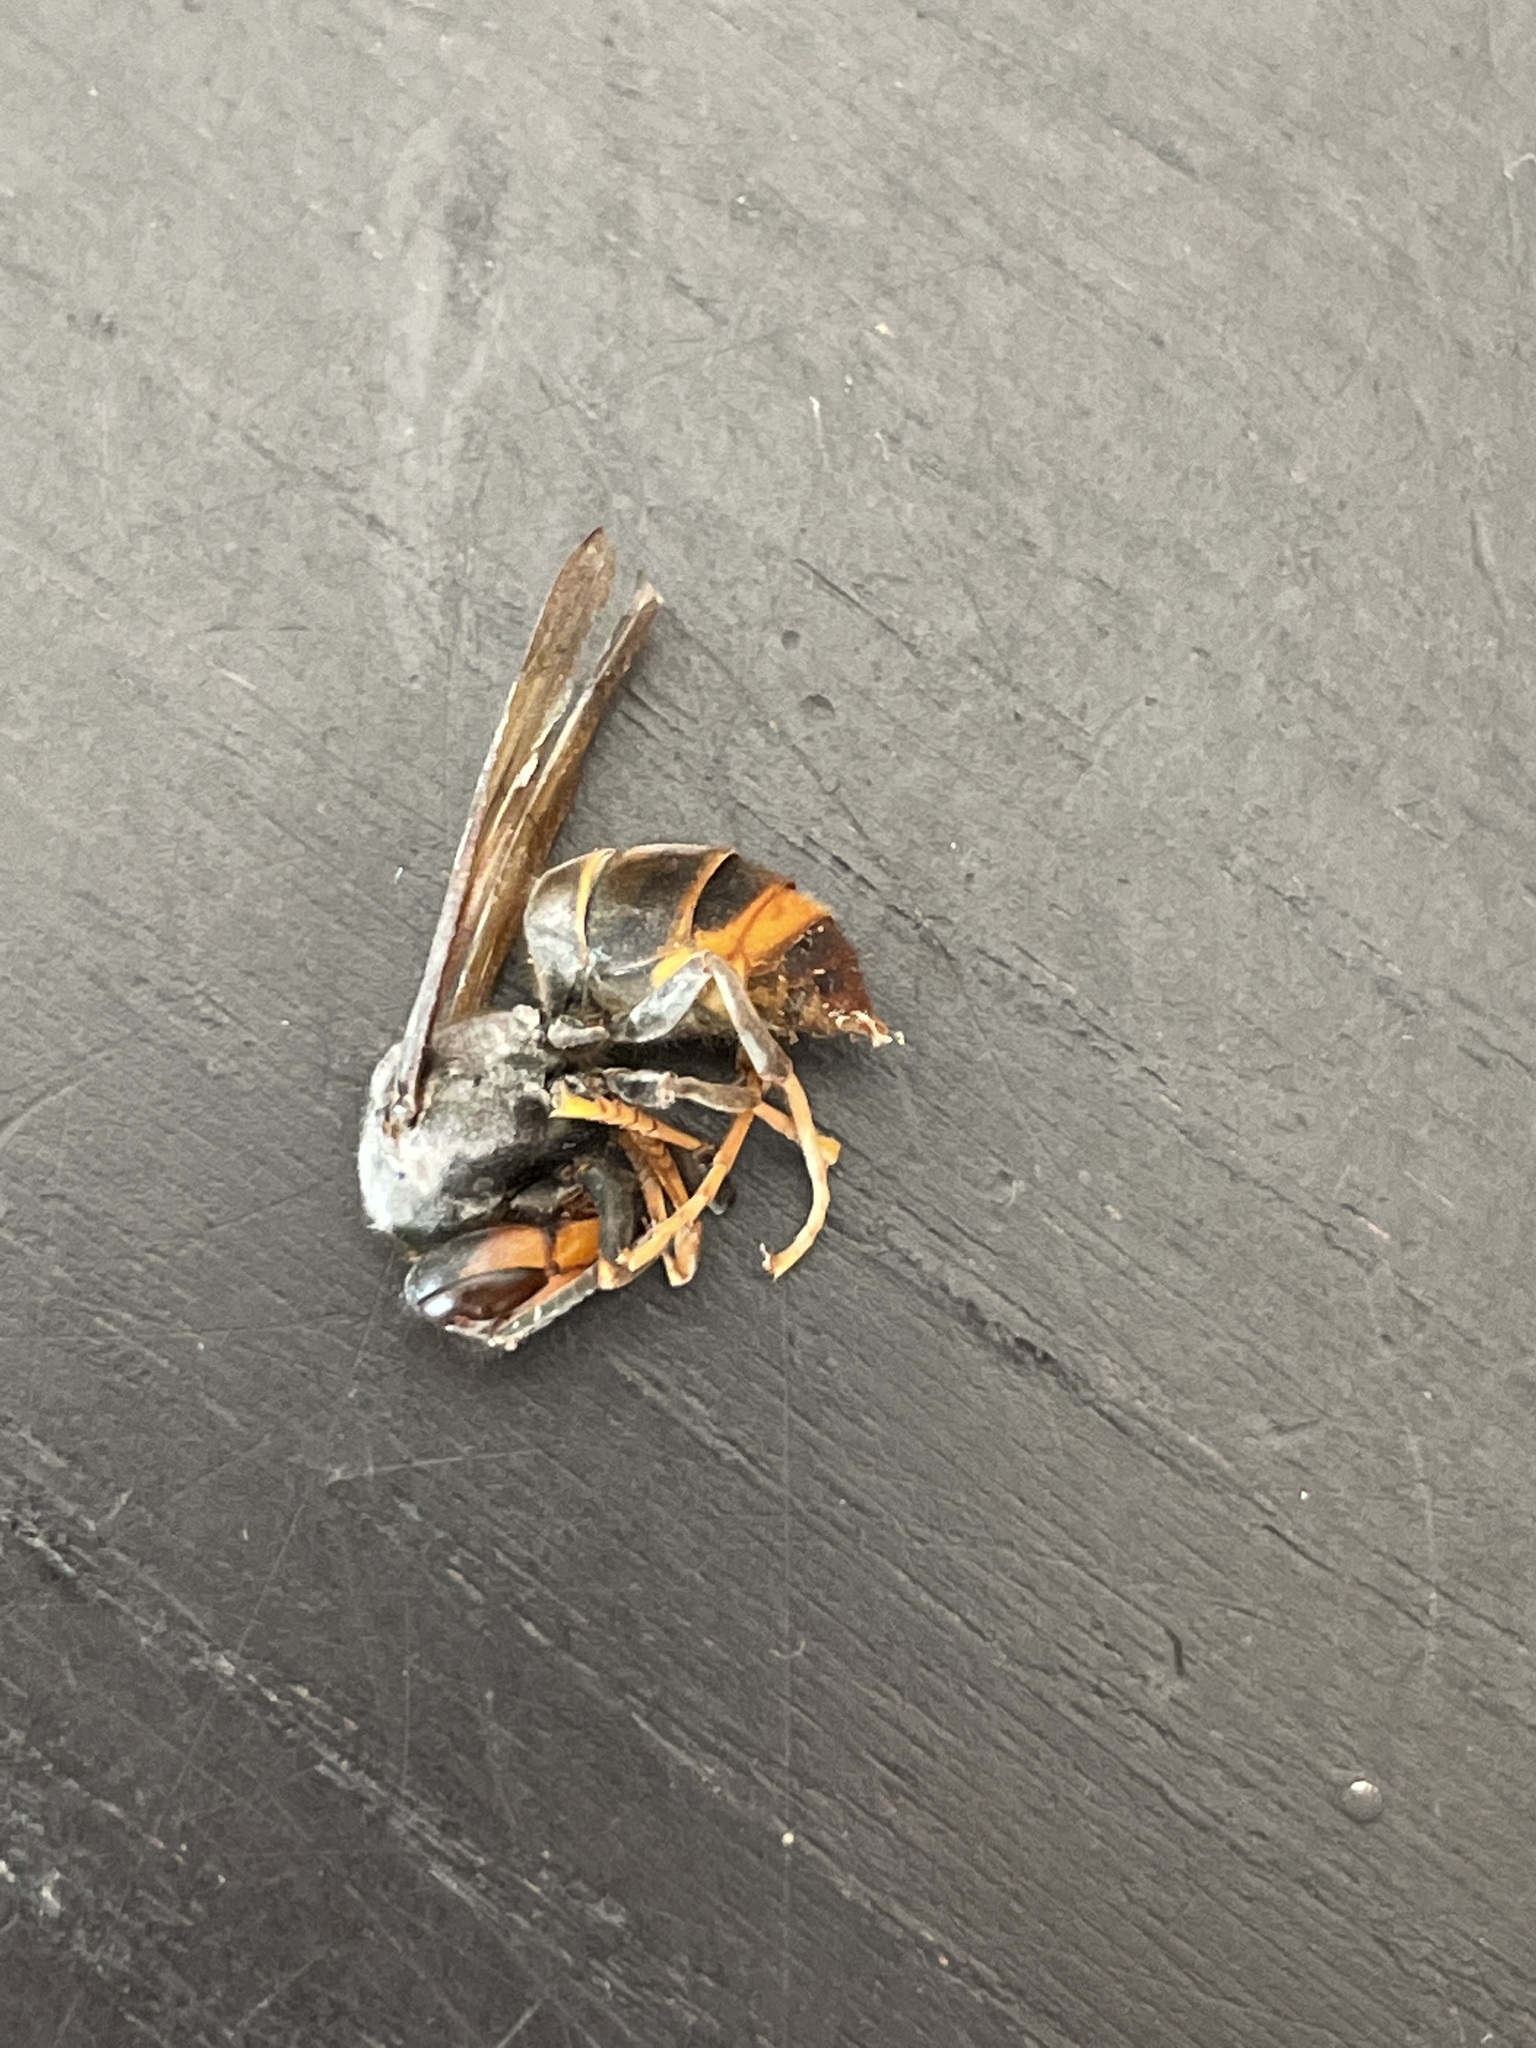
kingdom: Animalia
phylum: Arthropoda
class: Insecta
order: Hymenoptera
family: Vespidae
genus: Vespa
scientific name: Vespa velutina
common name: Asian hornet
